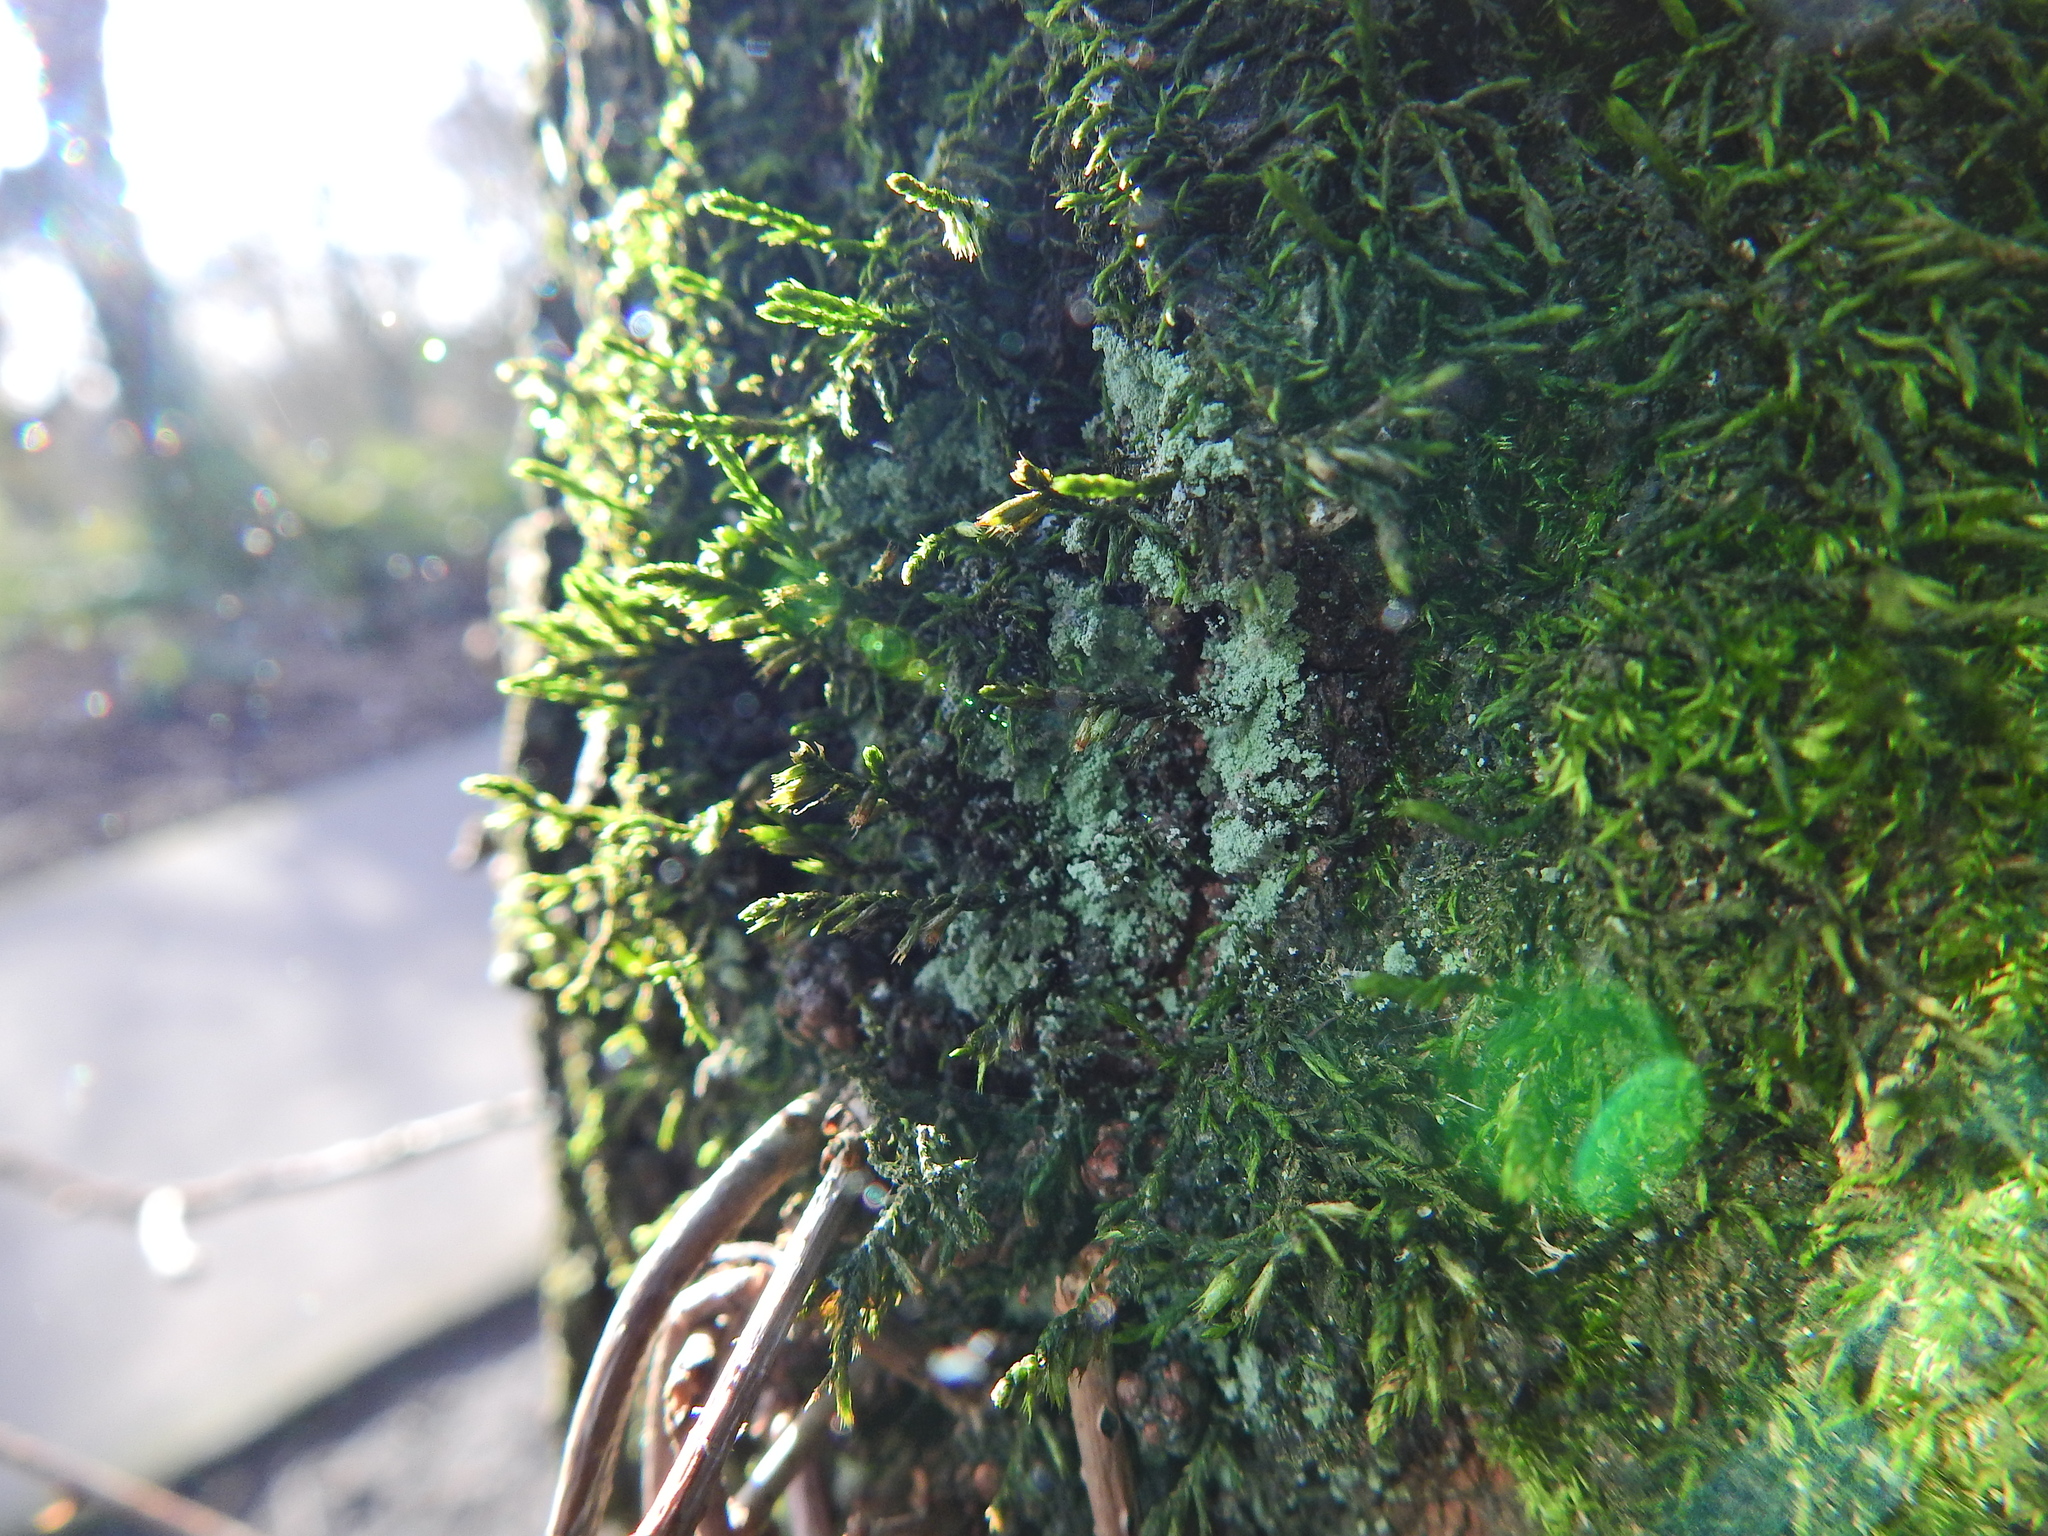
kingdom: Plantae
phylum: Bryophyta
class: Bryopsida
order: Hypnales
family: Cryphaeaceae
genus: Cryphaea
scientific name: Cryphaea heteromalla
